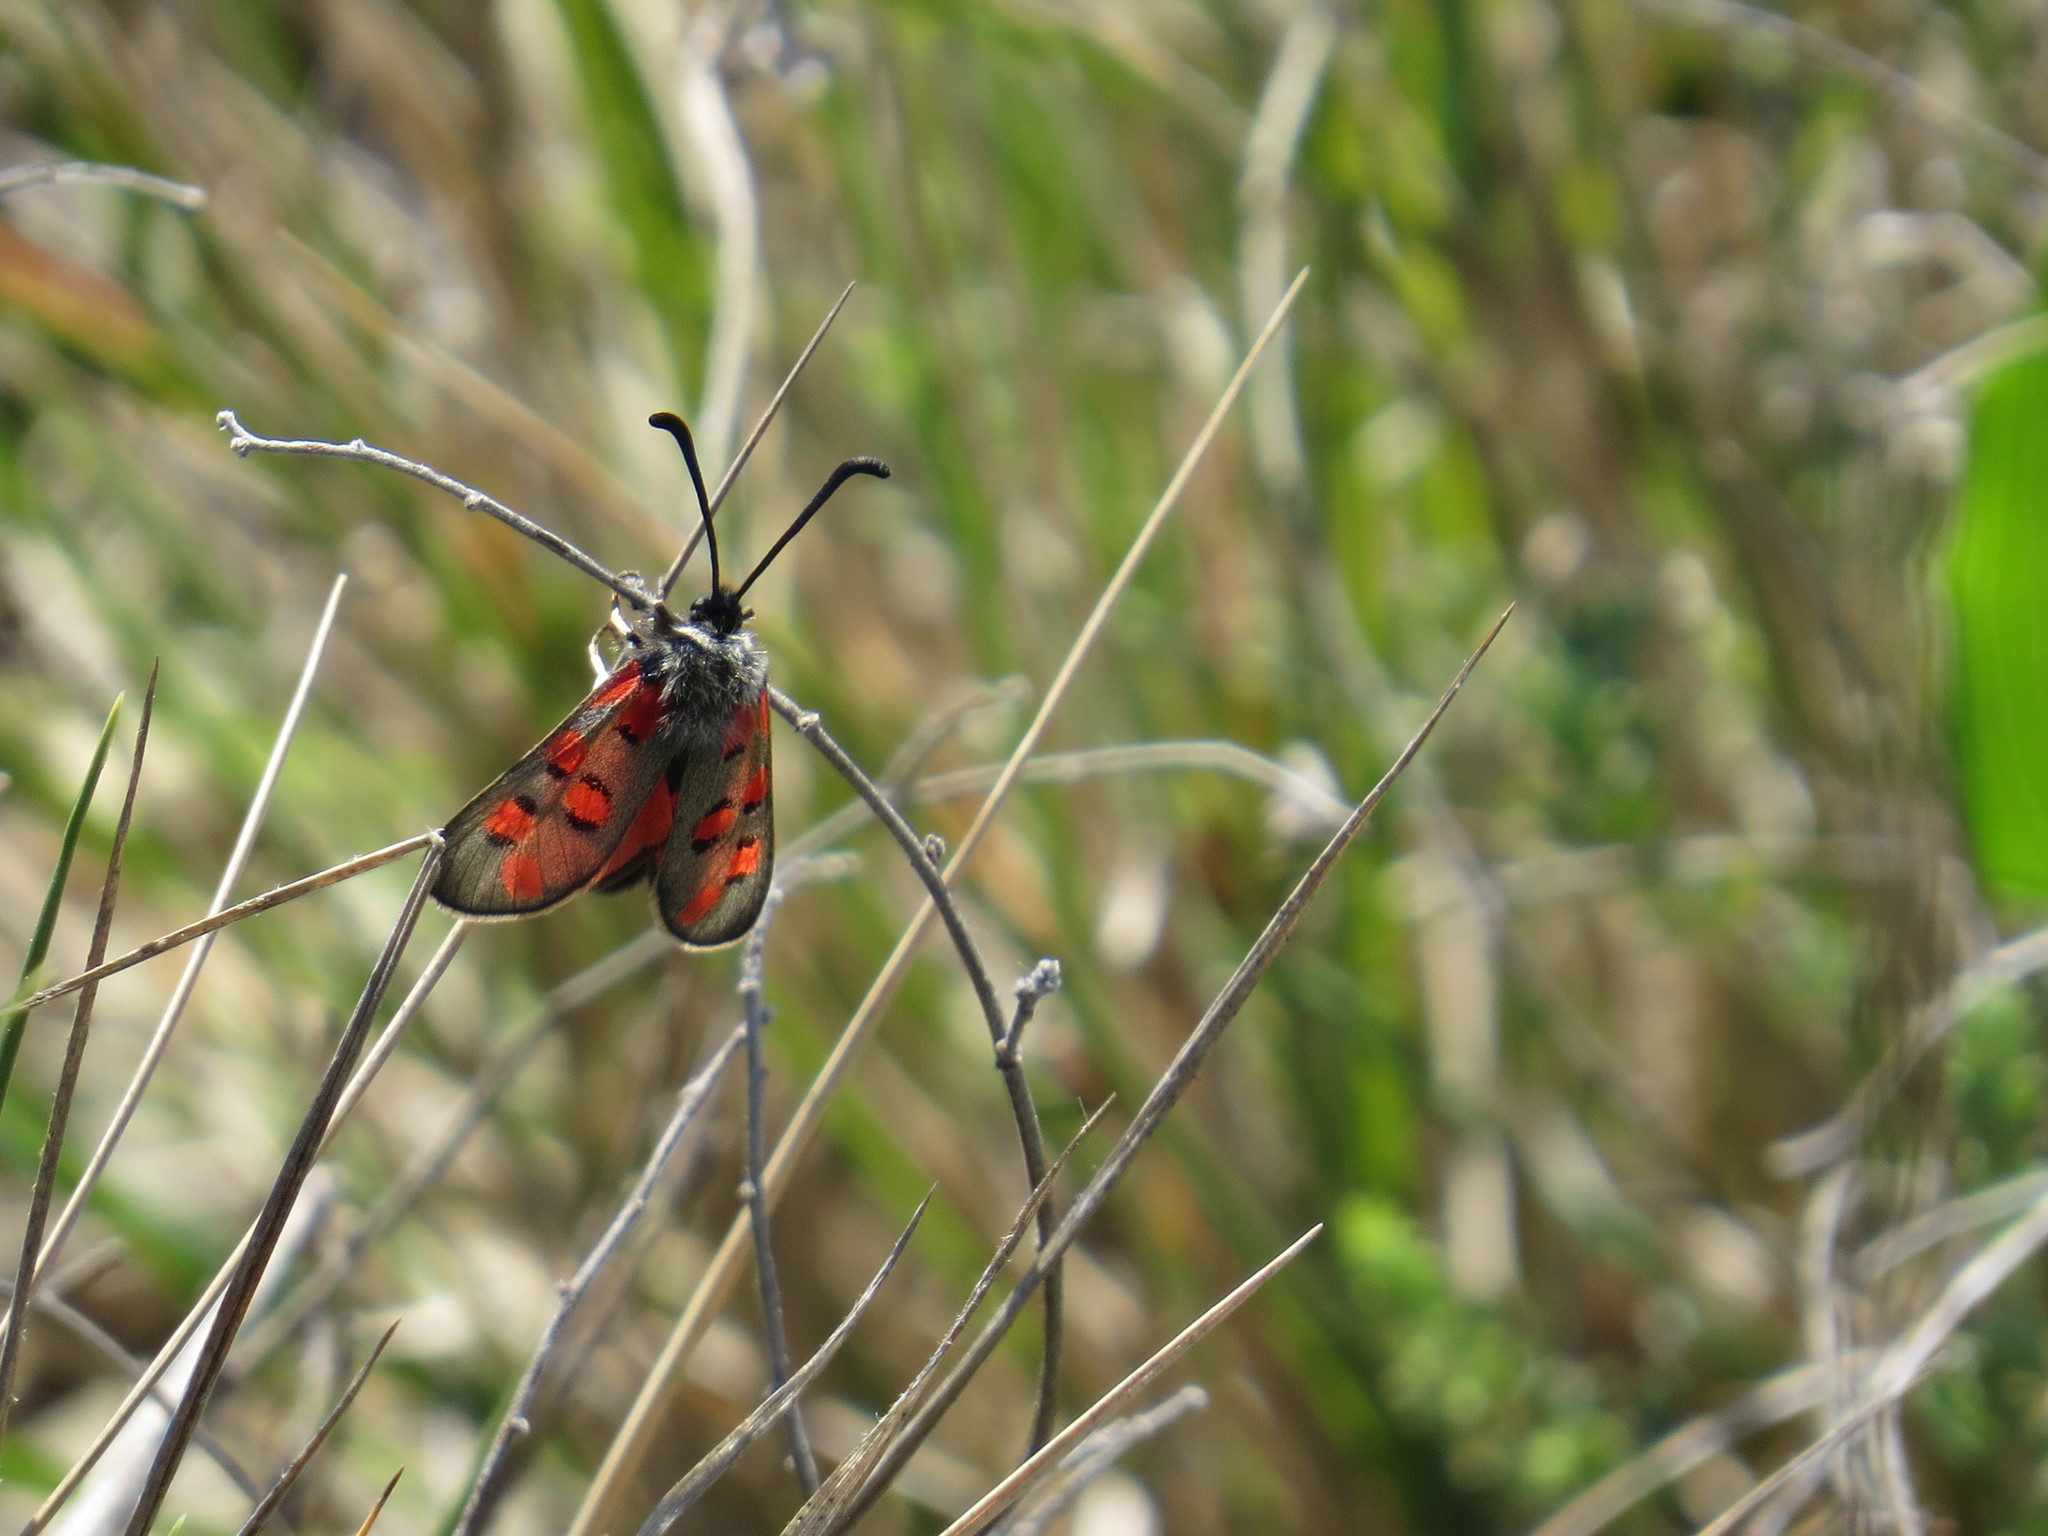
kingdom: Animalia
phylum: Arthropoda
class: Insecta
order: Lepidoptera
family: Zygaenidae
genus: Zygaena
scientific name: Zygaena rhadamanthus
